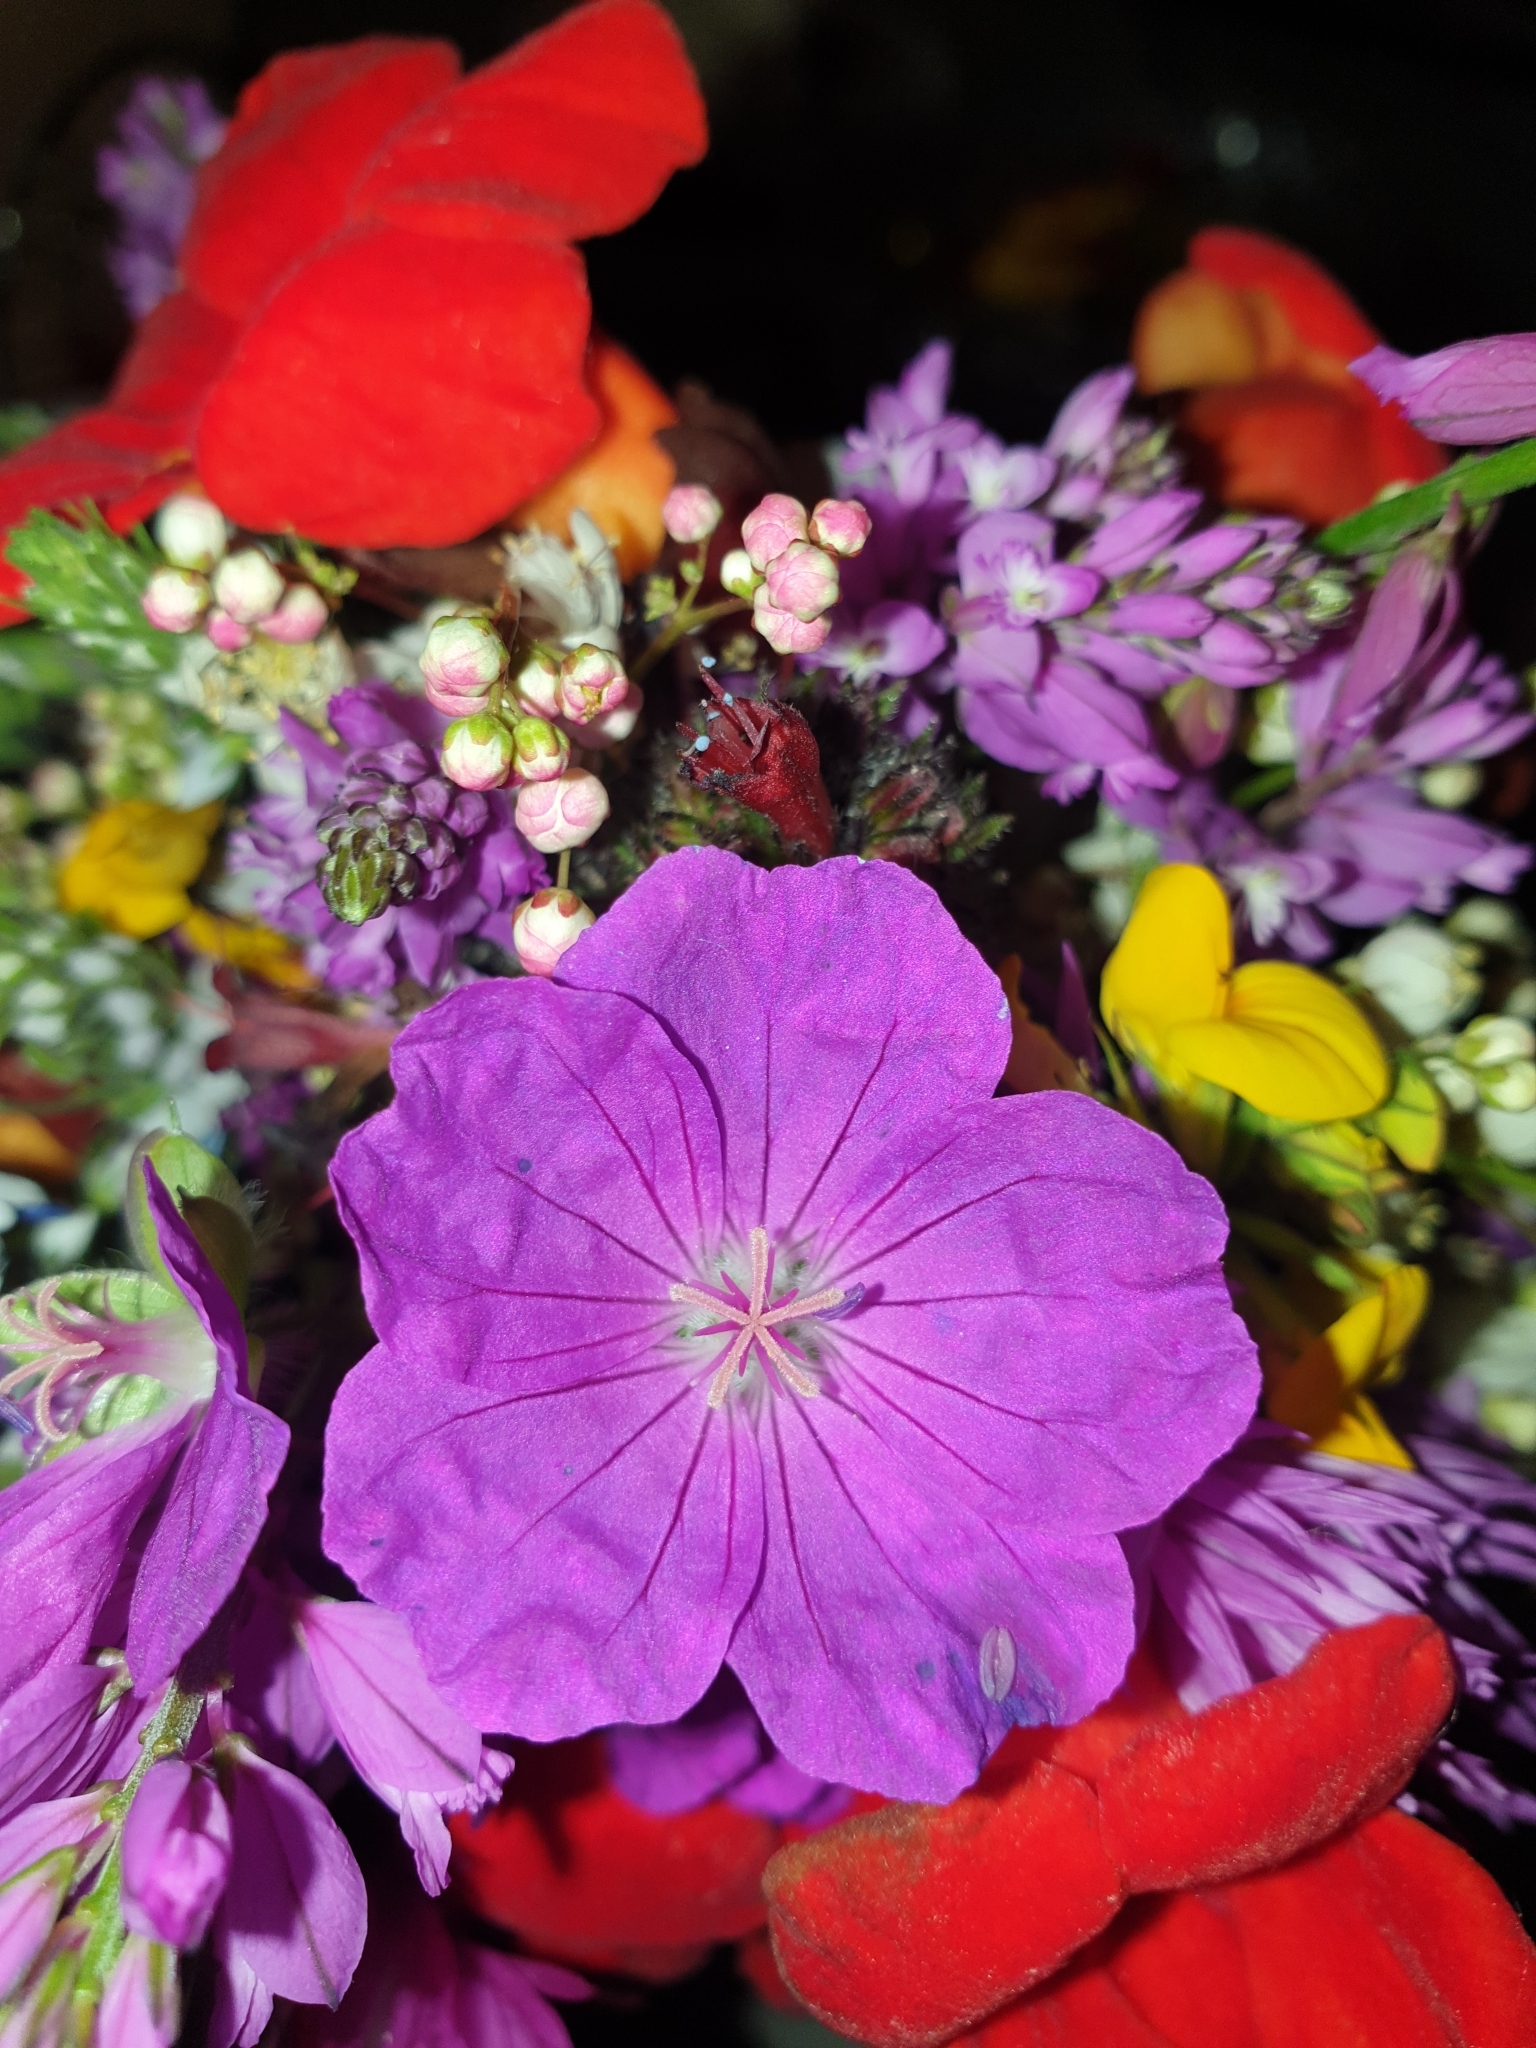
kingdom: Plantae
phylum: Tracheophyta
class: Magnoliopsida
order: Geraniales
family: Geraniaceae
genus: Geranium
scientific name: Geranium sanguineum
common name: Bloody crane's-bill
